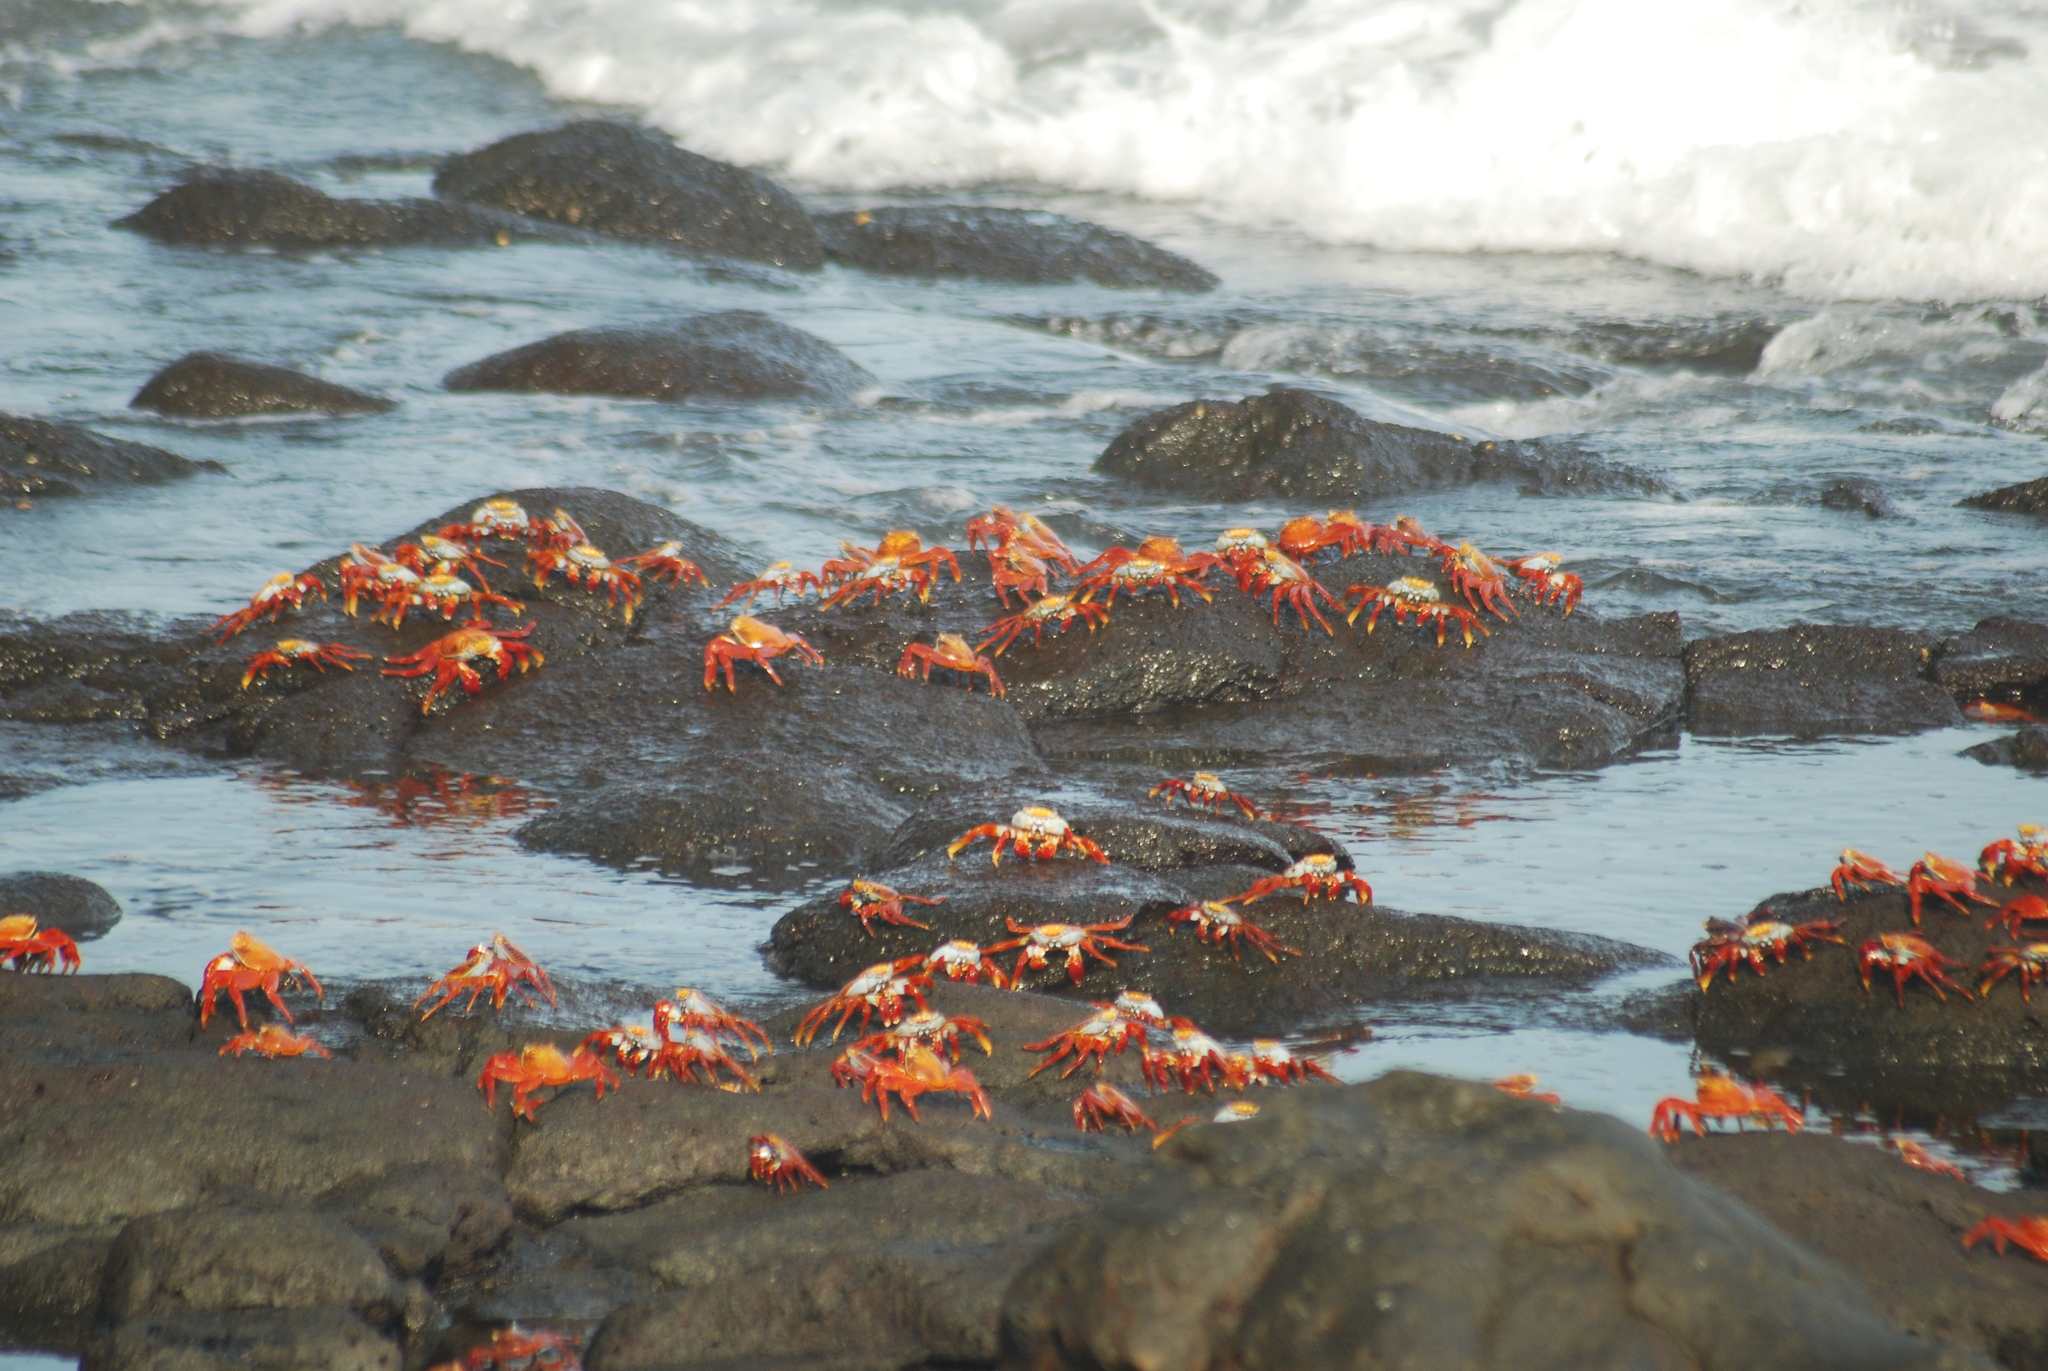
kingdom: Animalia
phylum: Arthropoda
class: Malacostraca
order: Decapoda
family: Grapsidae
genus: Grapsus
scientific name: Grapsus grapsus
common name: Sally lightfoot
